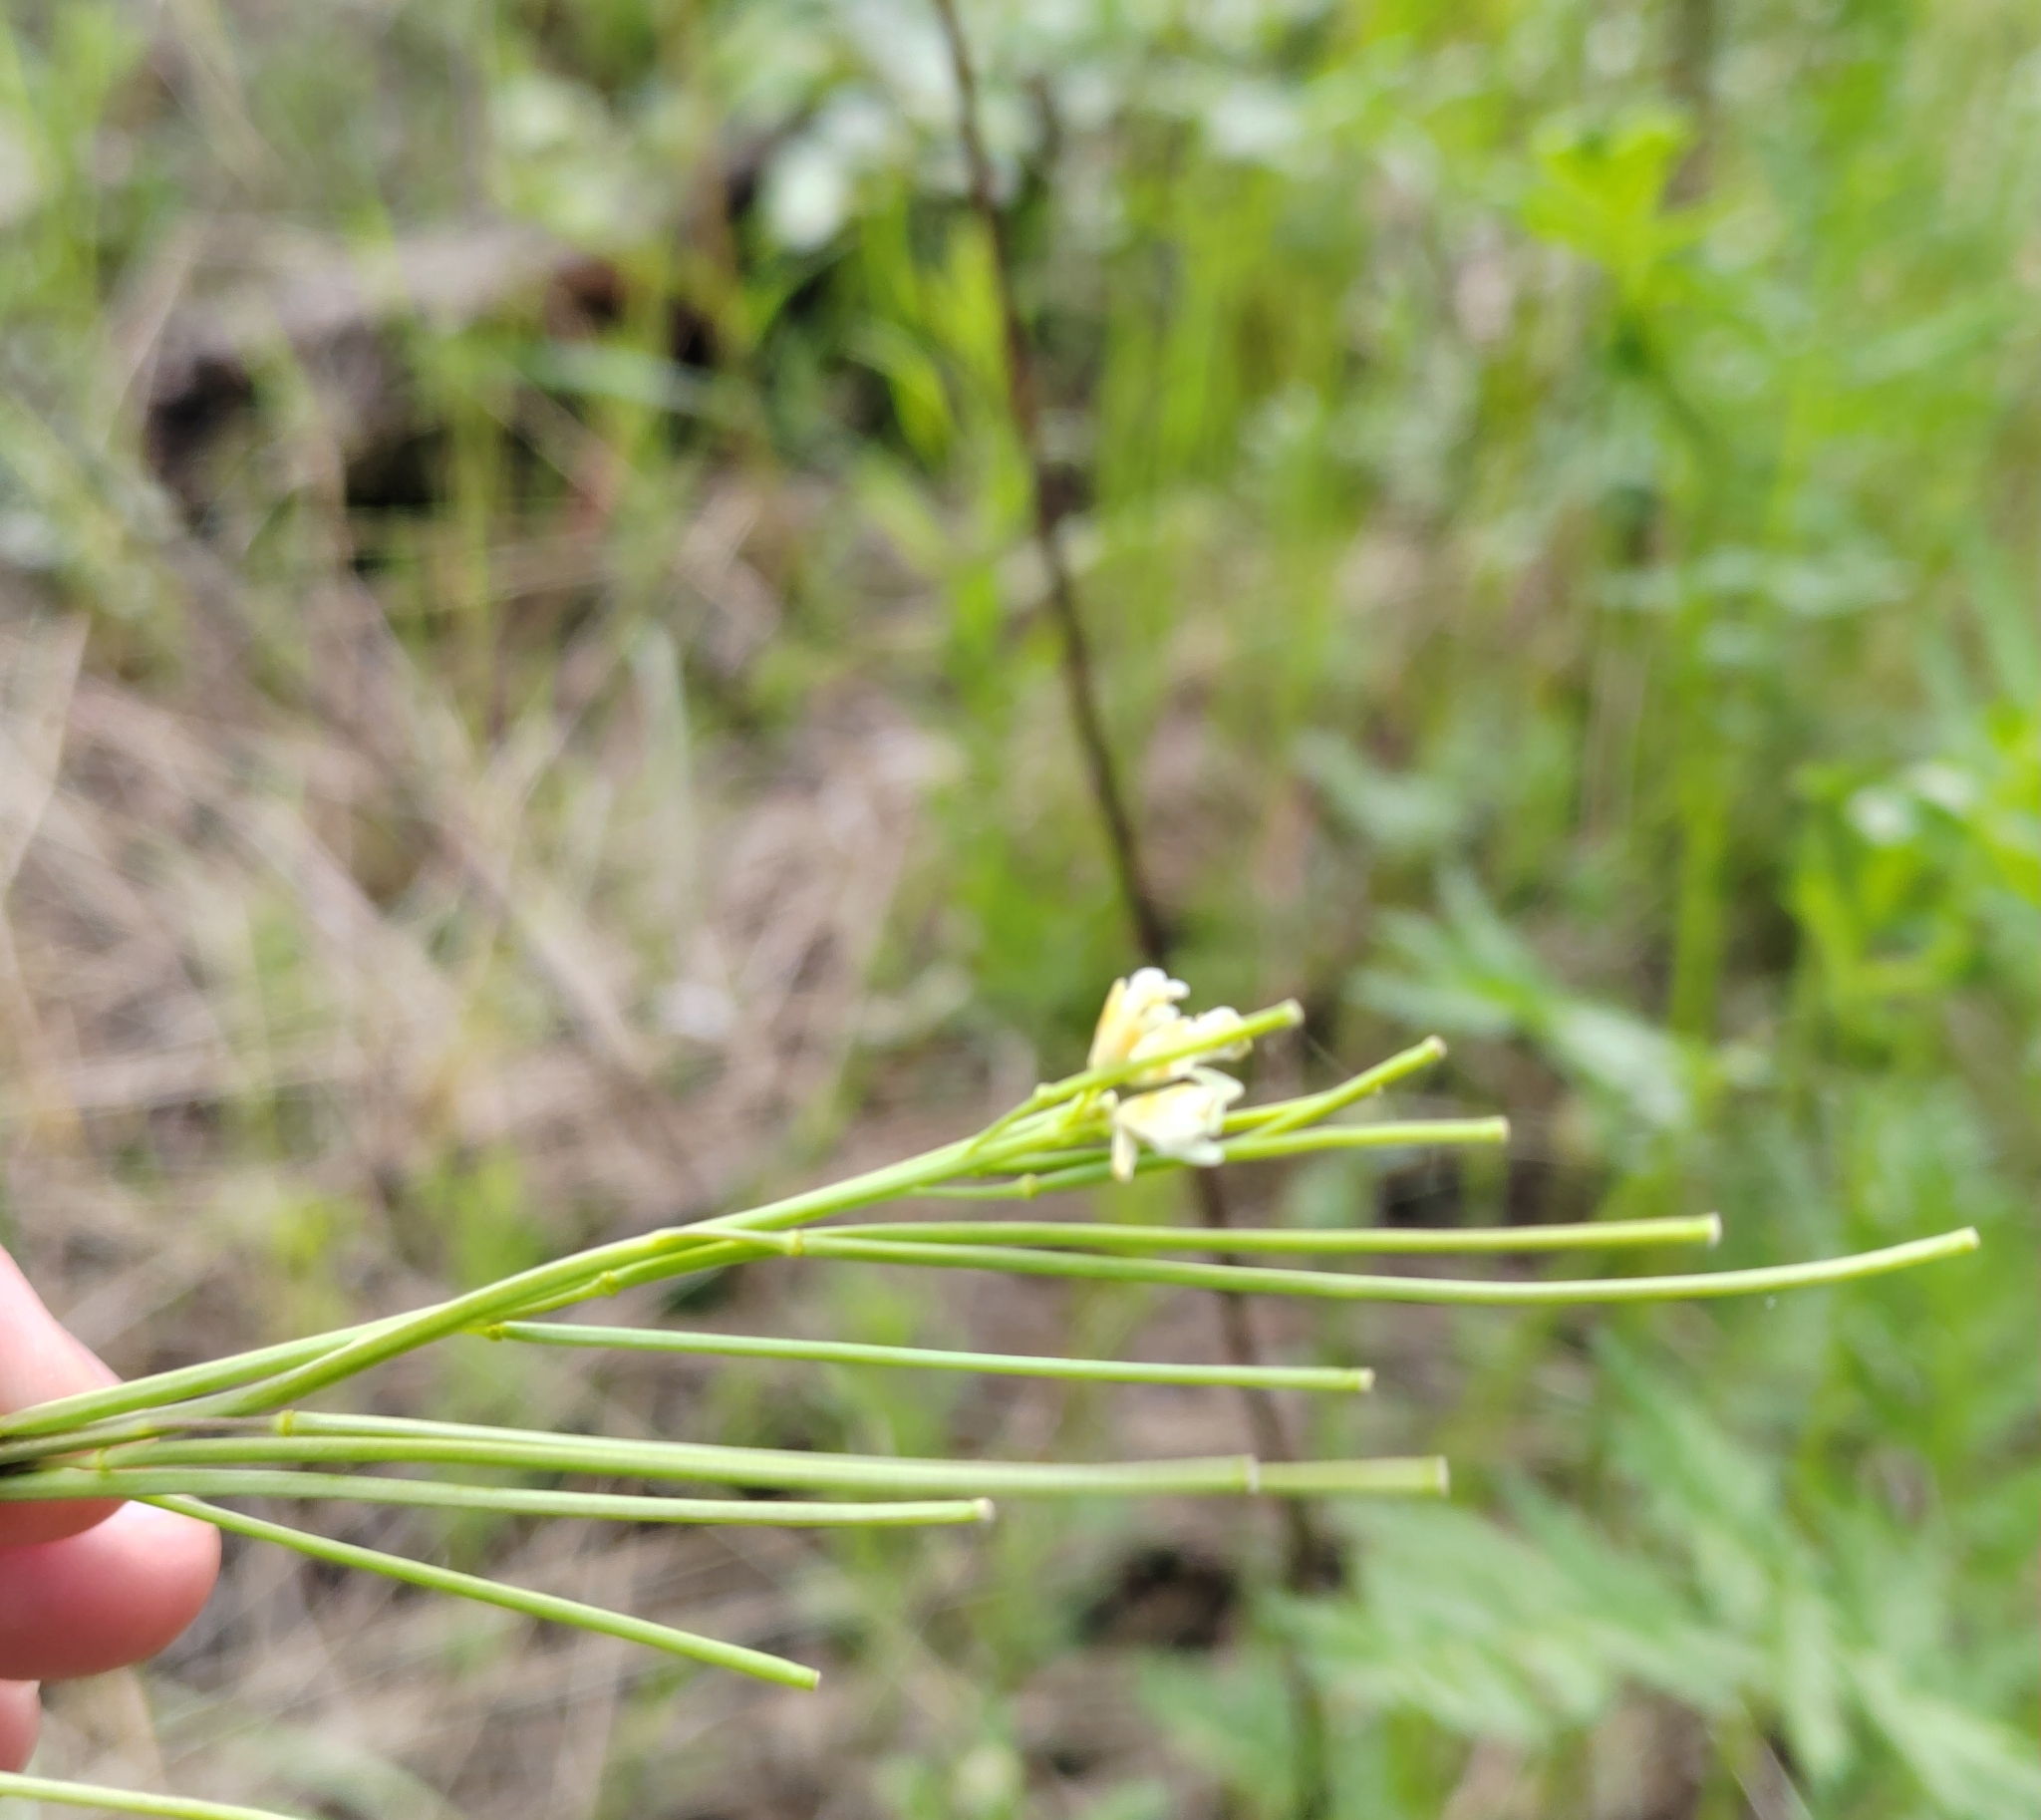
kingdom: Plantae
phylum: Tracheophyta
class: Magnoliopsida
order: Brassicales
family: Brassicaceae
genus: Turritis
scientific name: Turritis glabra
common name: Tower rockcress
